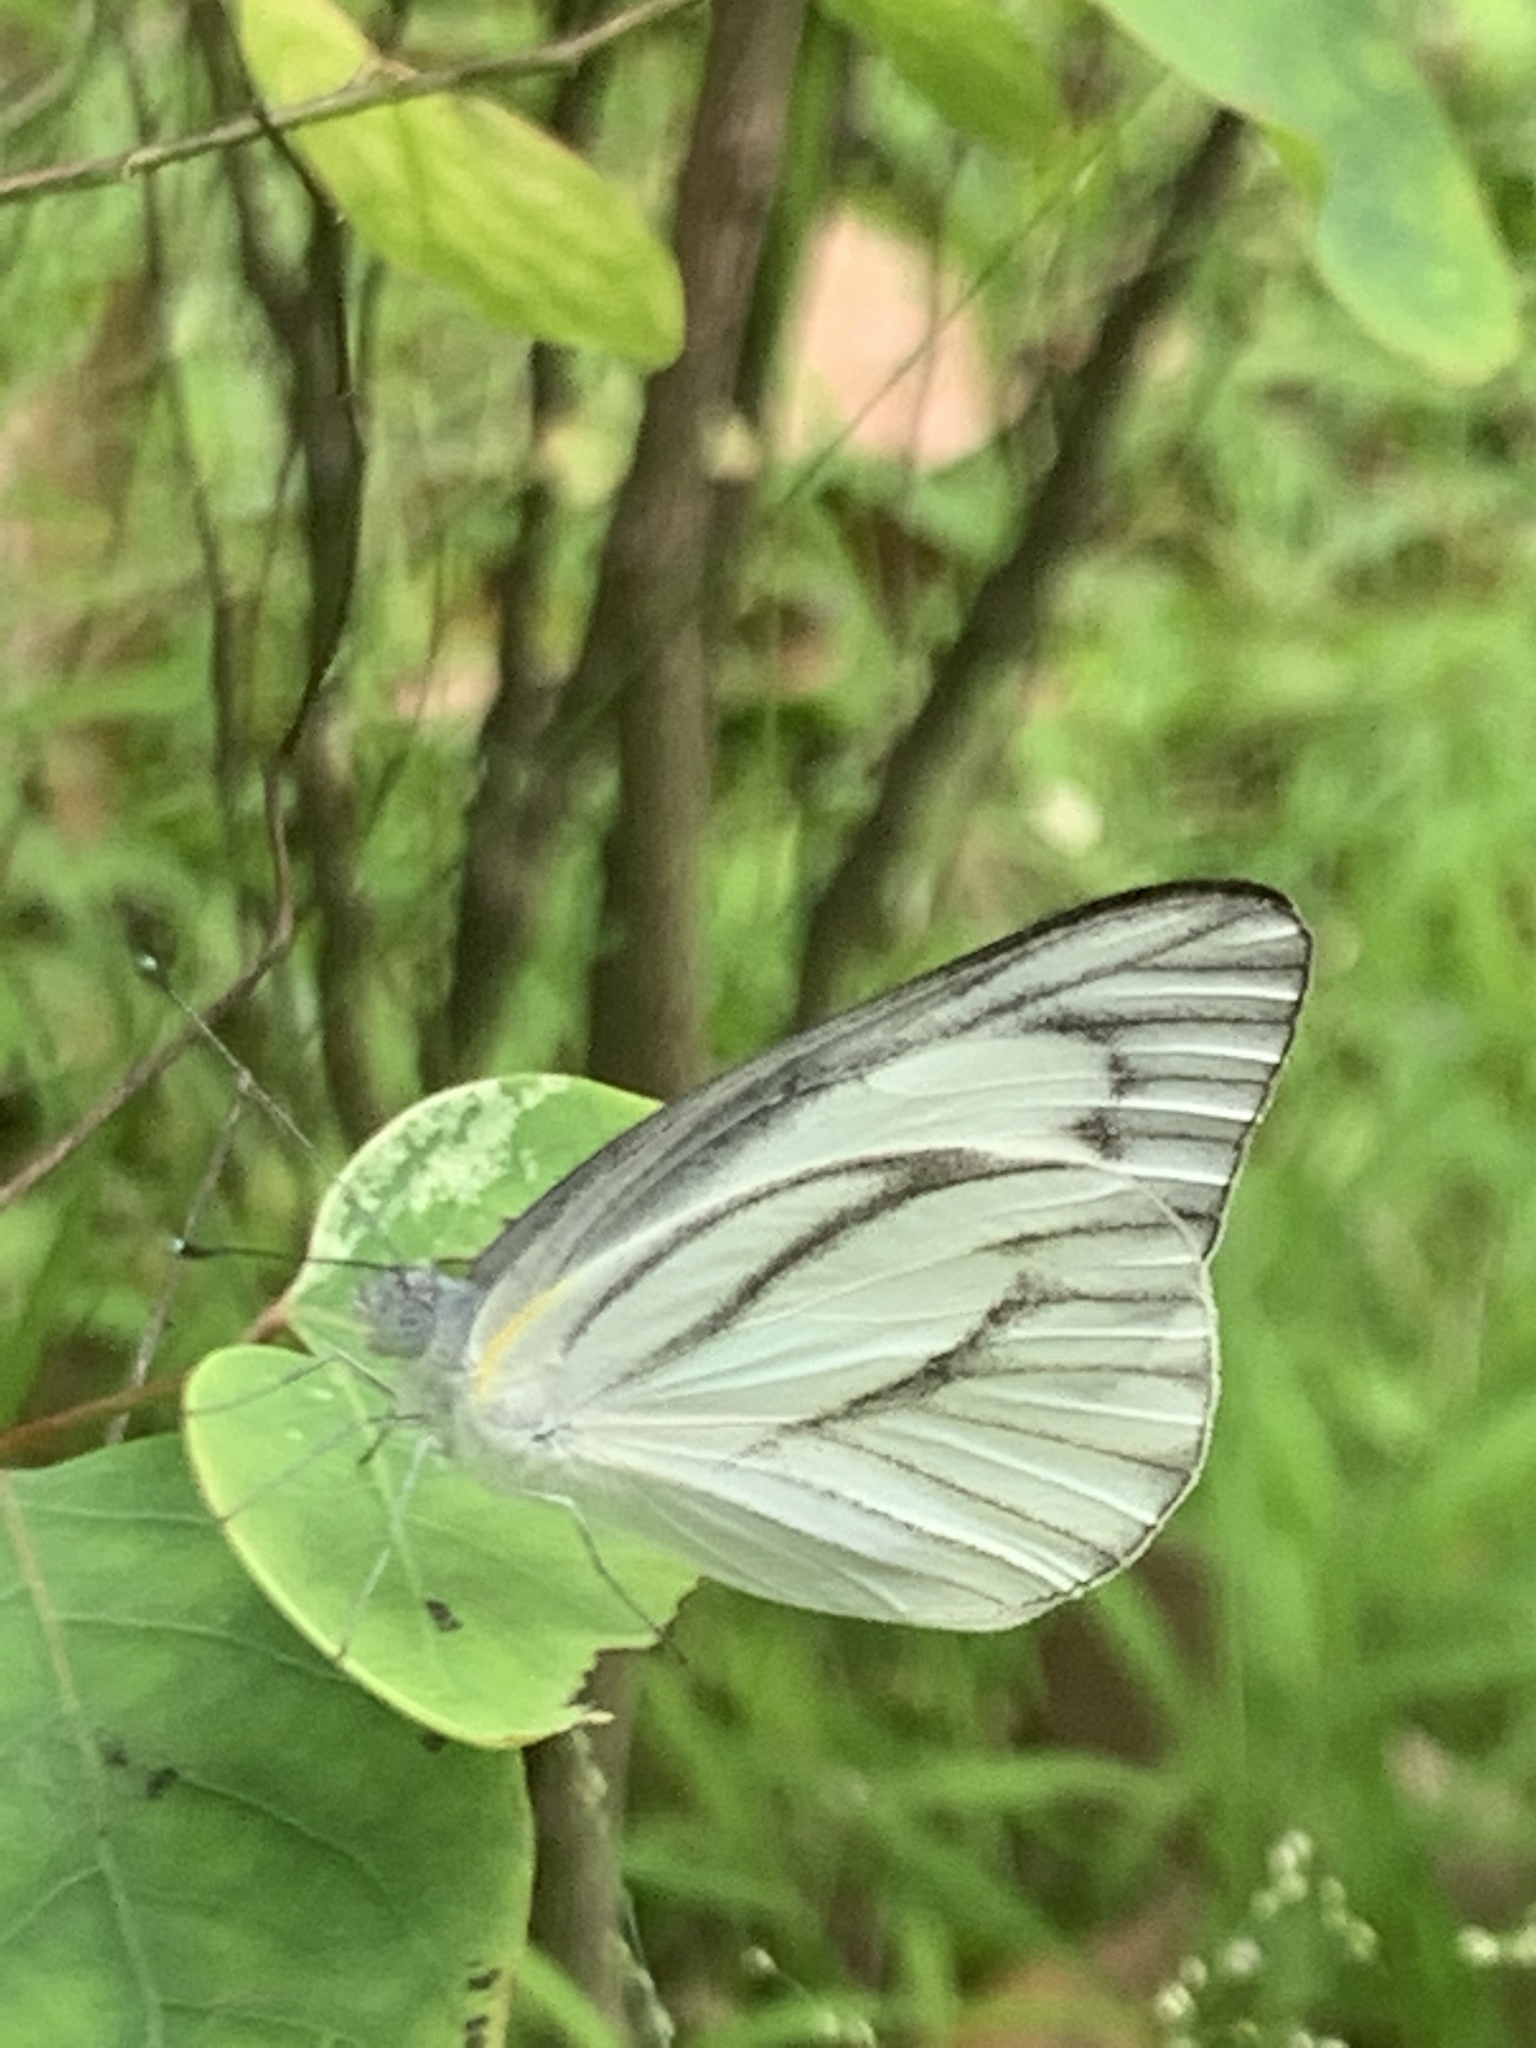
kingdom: Animalia
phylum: Arthropoda
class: Insecta
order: Lepidoptera
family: Pieridae
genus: Appias
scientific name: Appias libythea
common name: Striped albatross
